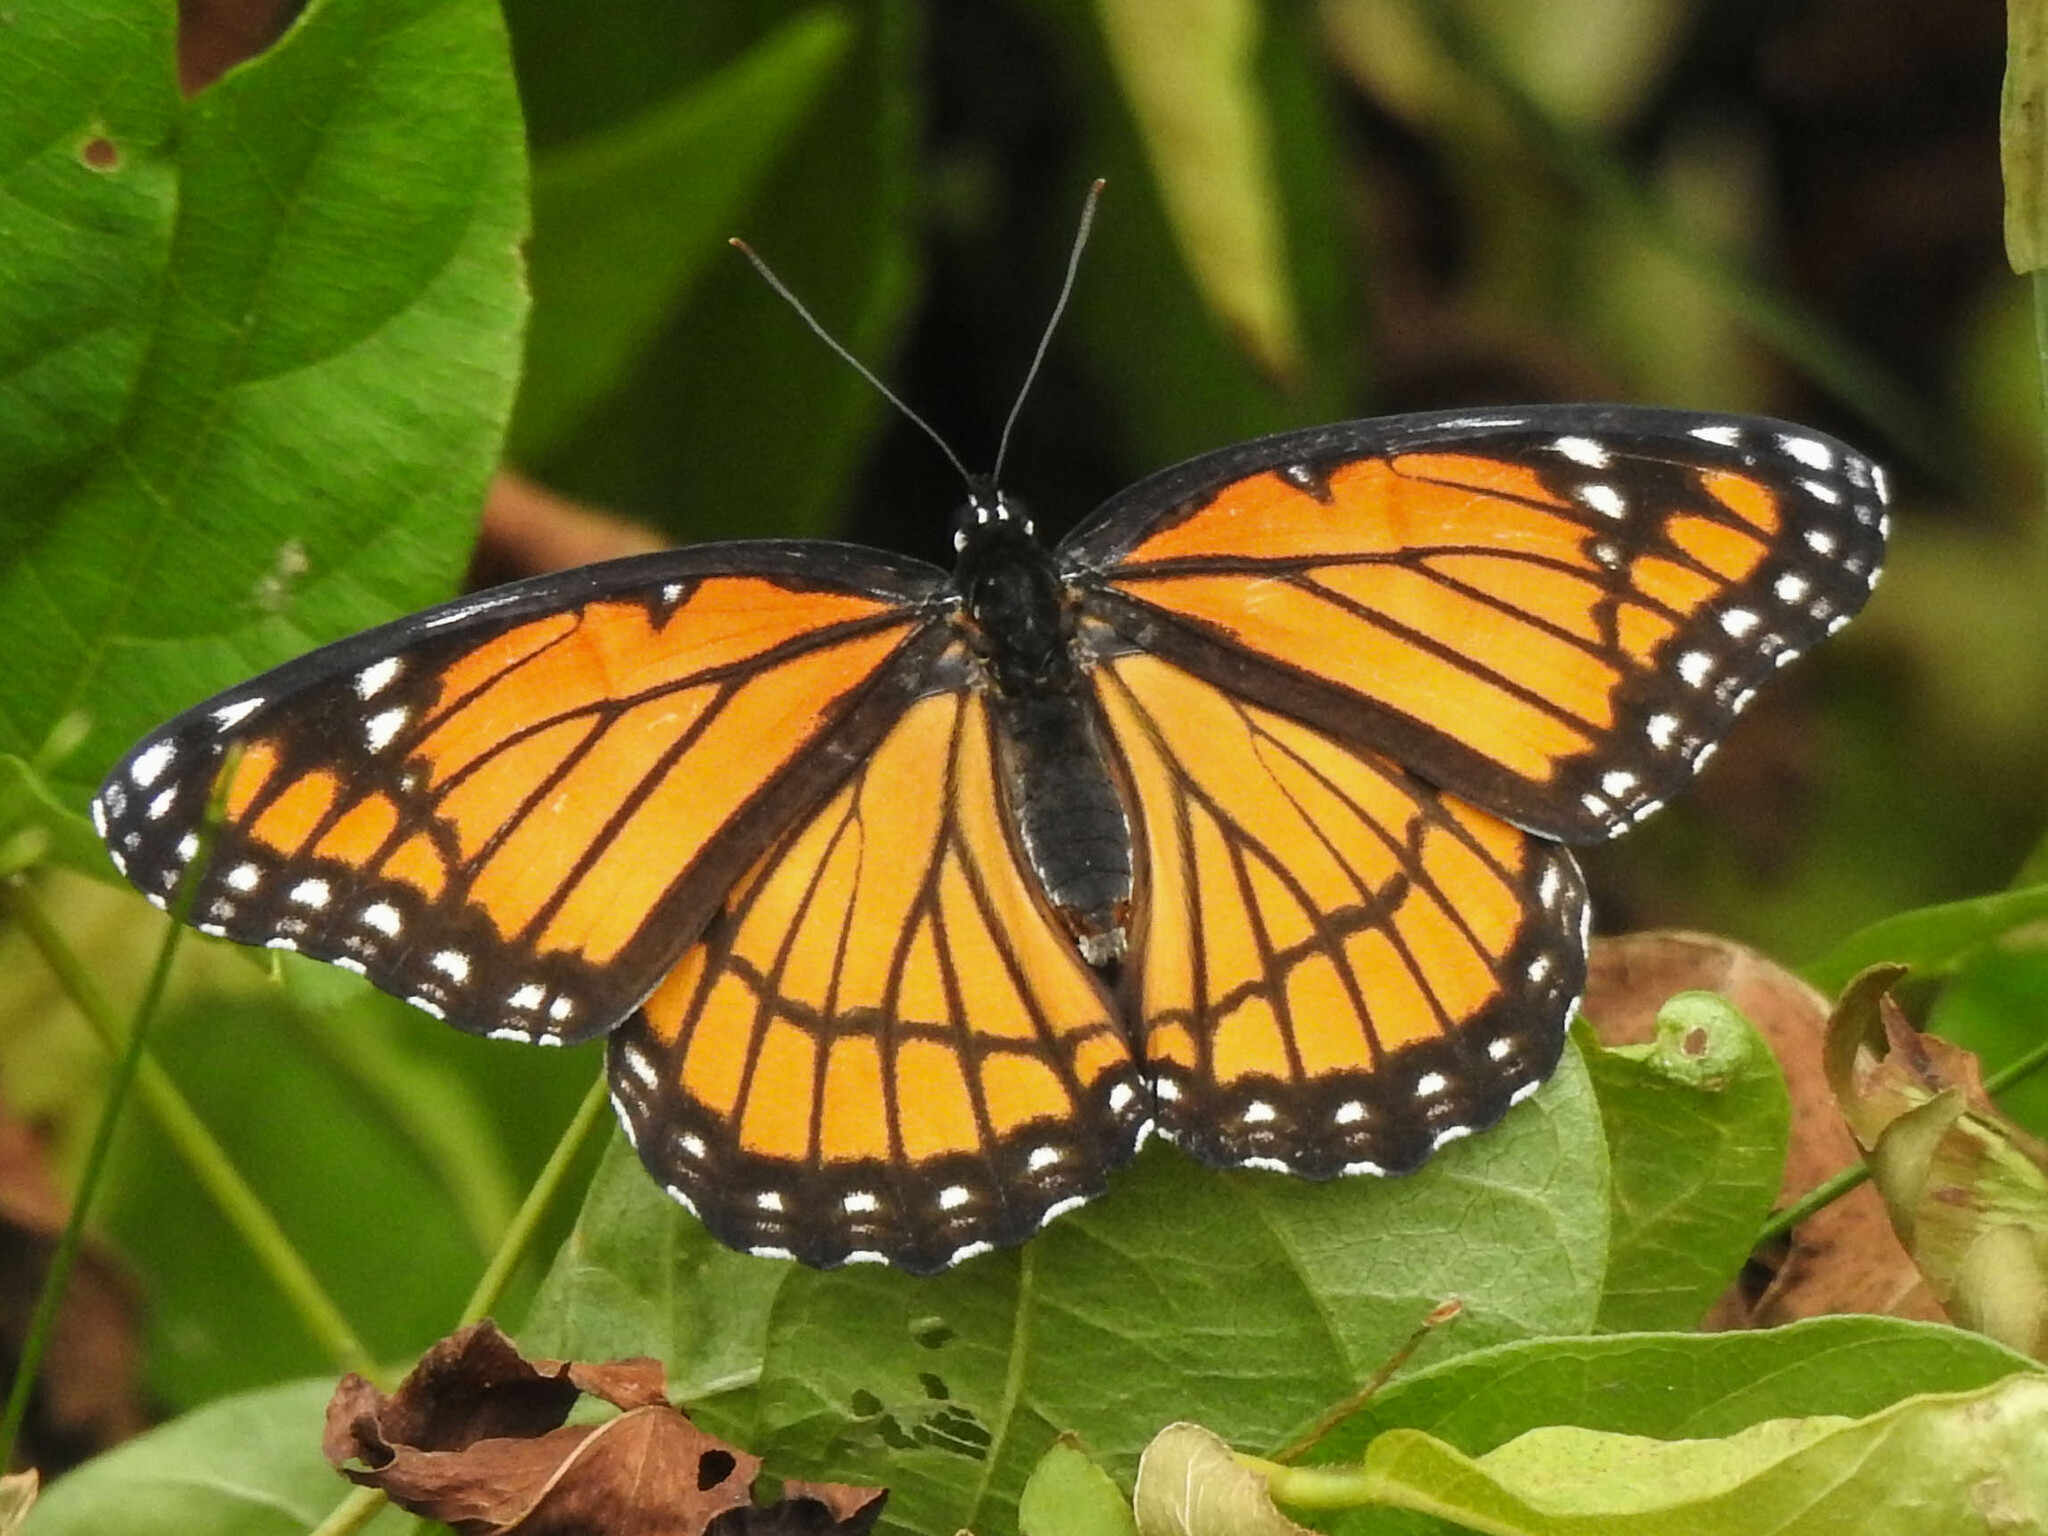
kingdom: Animalia
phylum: Arthropoda
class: Insecta
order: Lepidoptera
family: Nymphalidae
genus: Limenitis
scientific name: Limenitis archippus
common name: Viceroy
